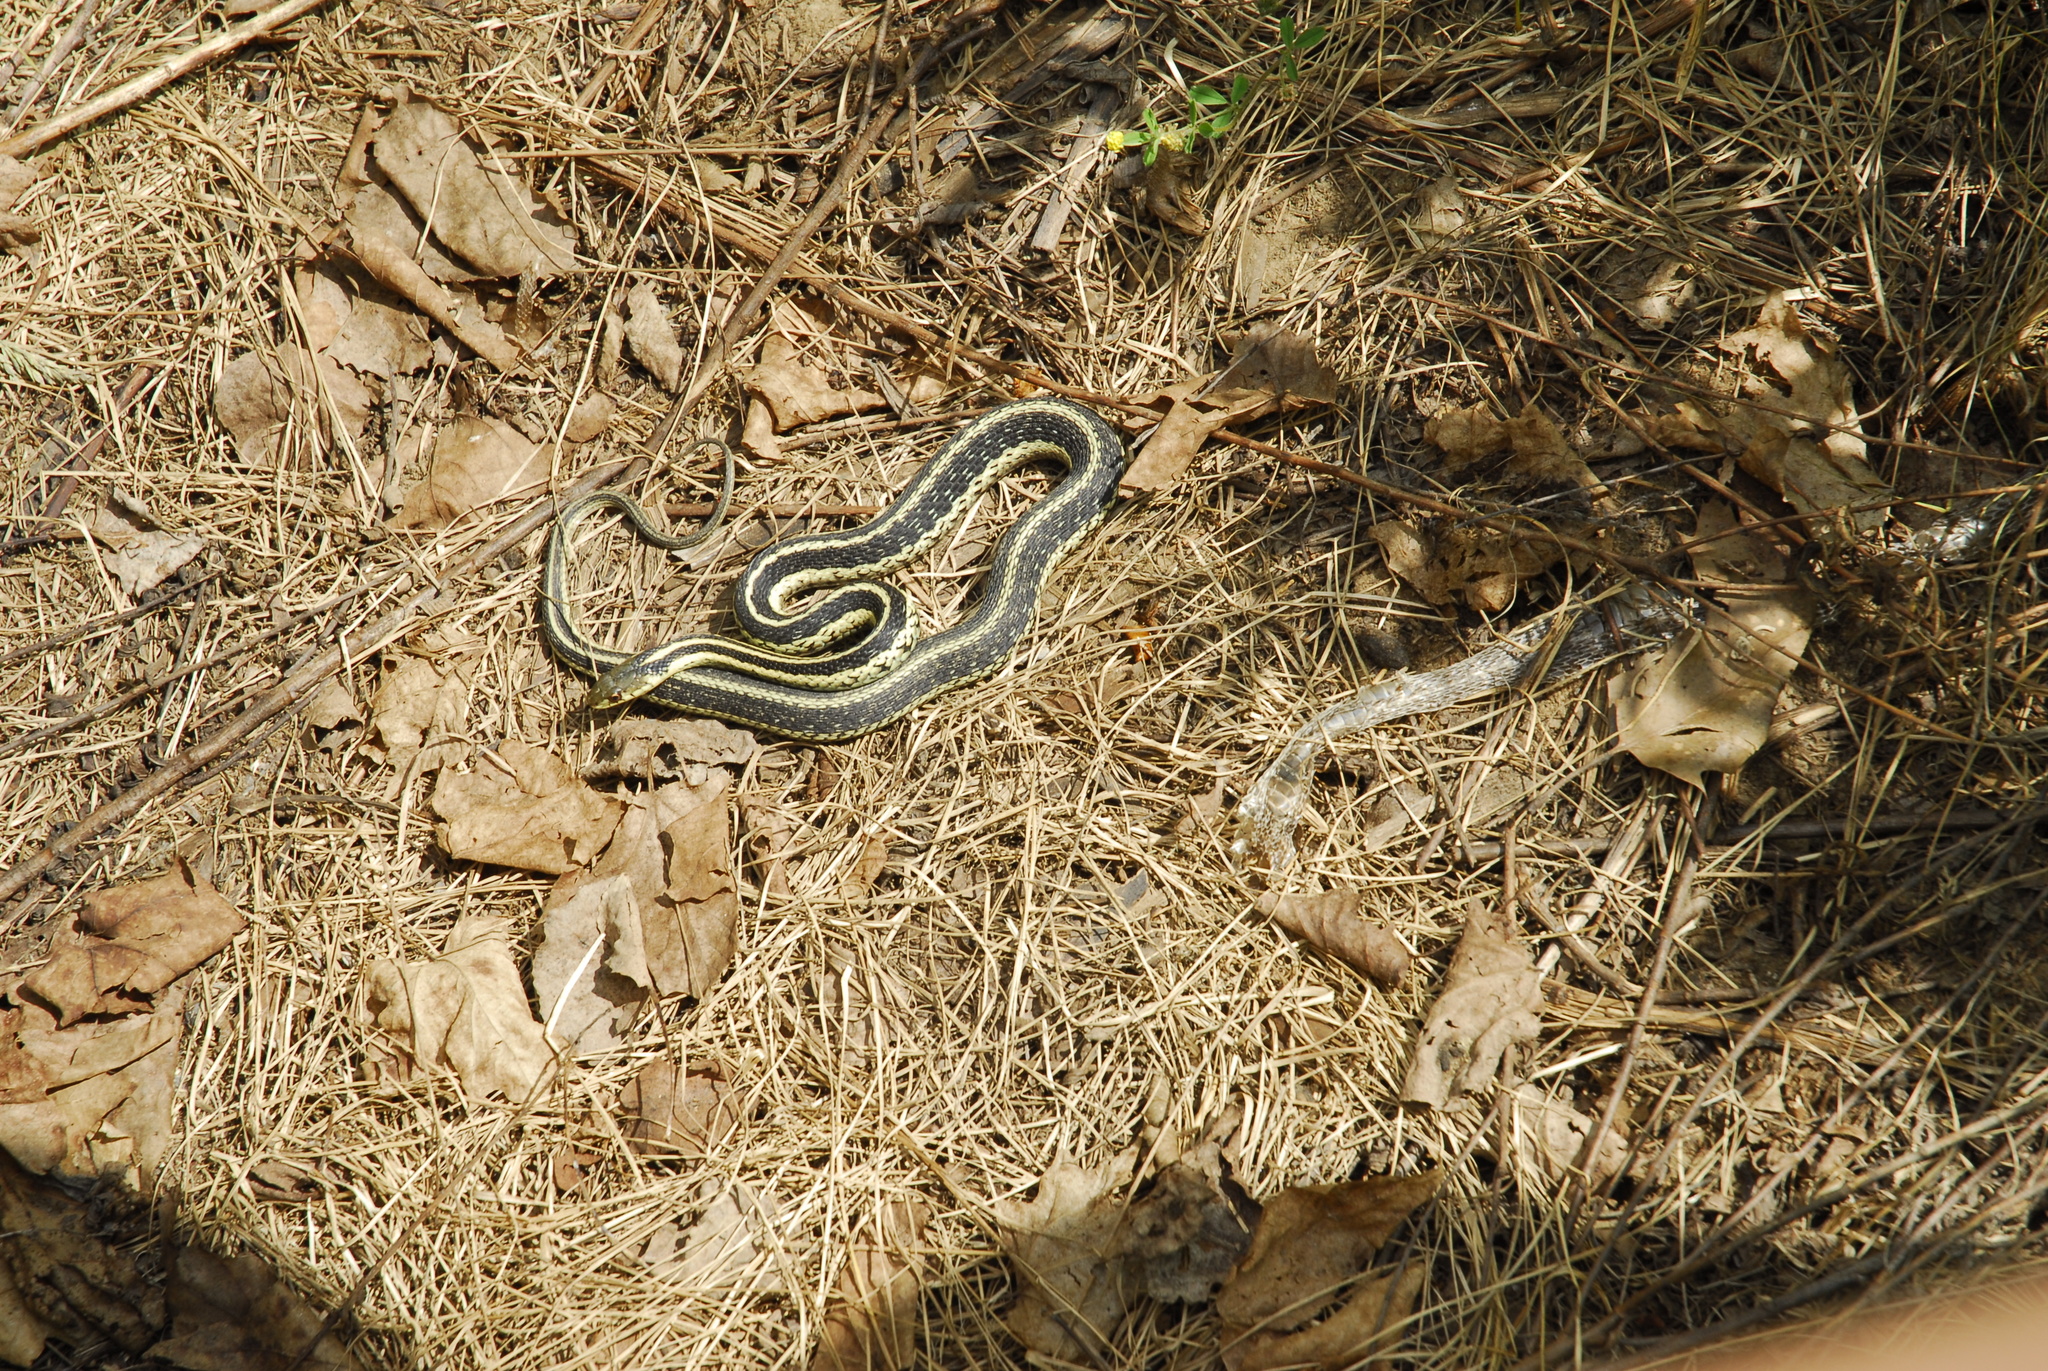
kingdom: Animalia
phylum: Chordata
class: Squamata
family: Colubridae
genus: Thamnophis
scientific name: Thamnophis sirtalis
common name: Common garter snake
